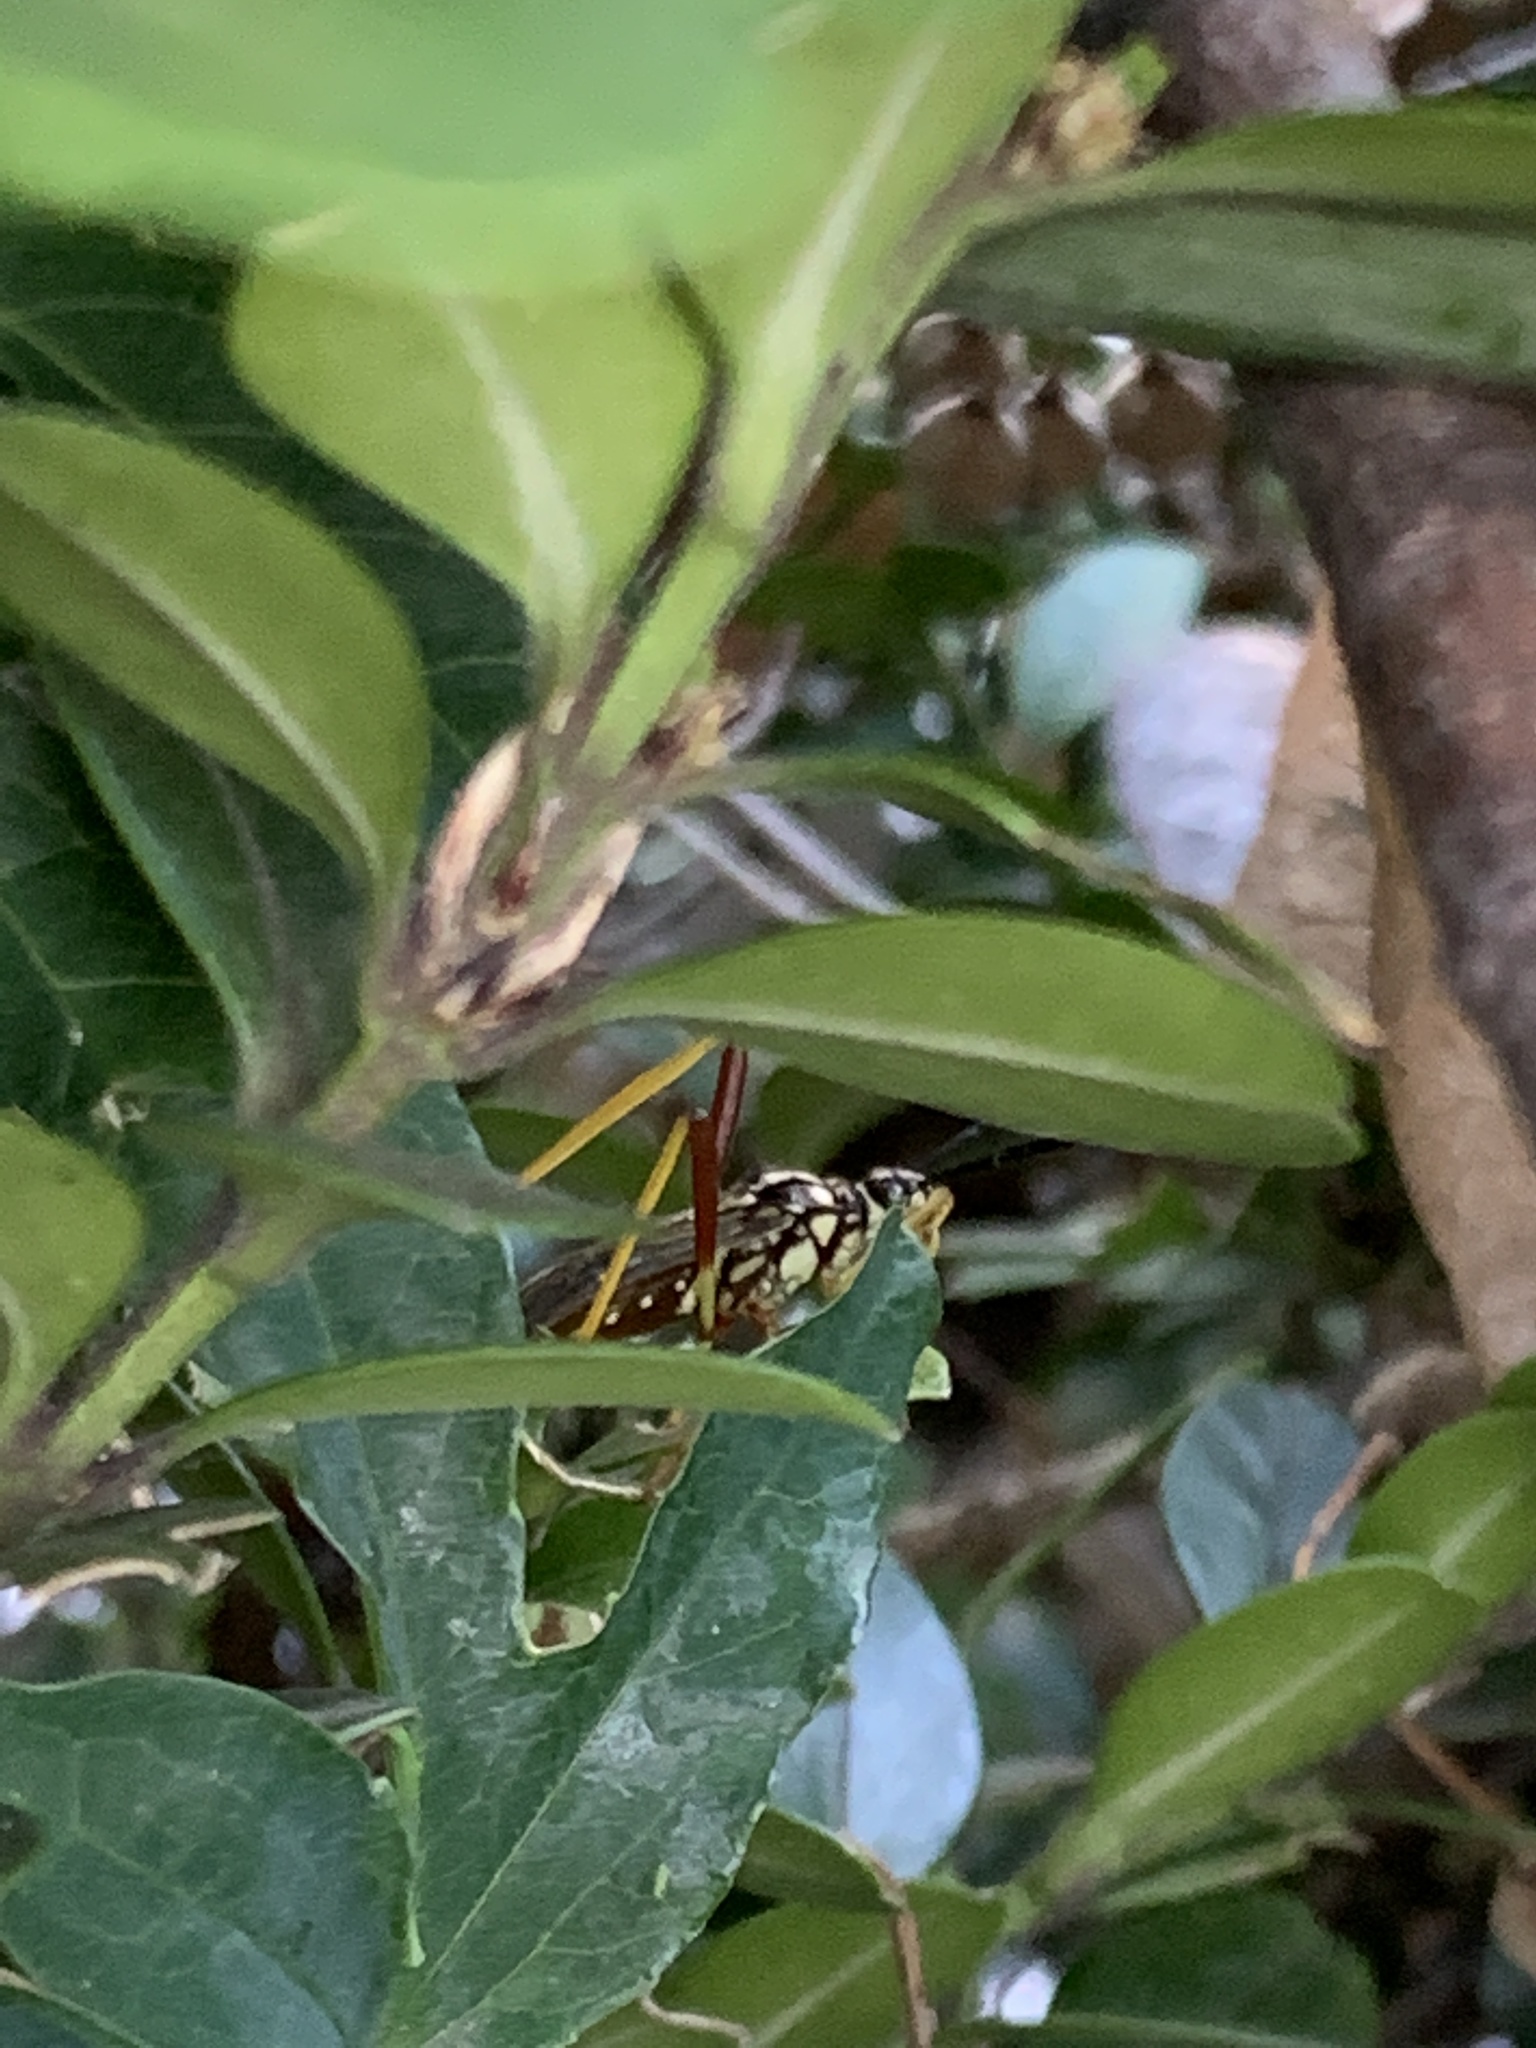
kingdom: Animalia
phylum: Arthropoda
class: Insecta
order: Hemiptera
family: Coreidae
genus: Holhymenia
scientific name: Holhymenia histrio
